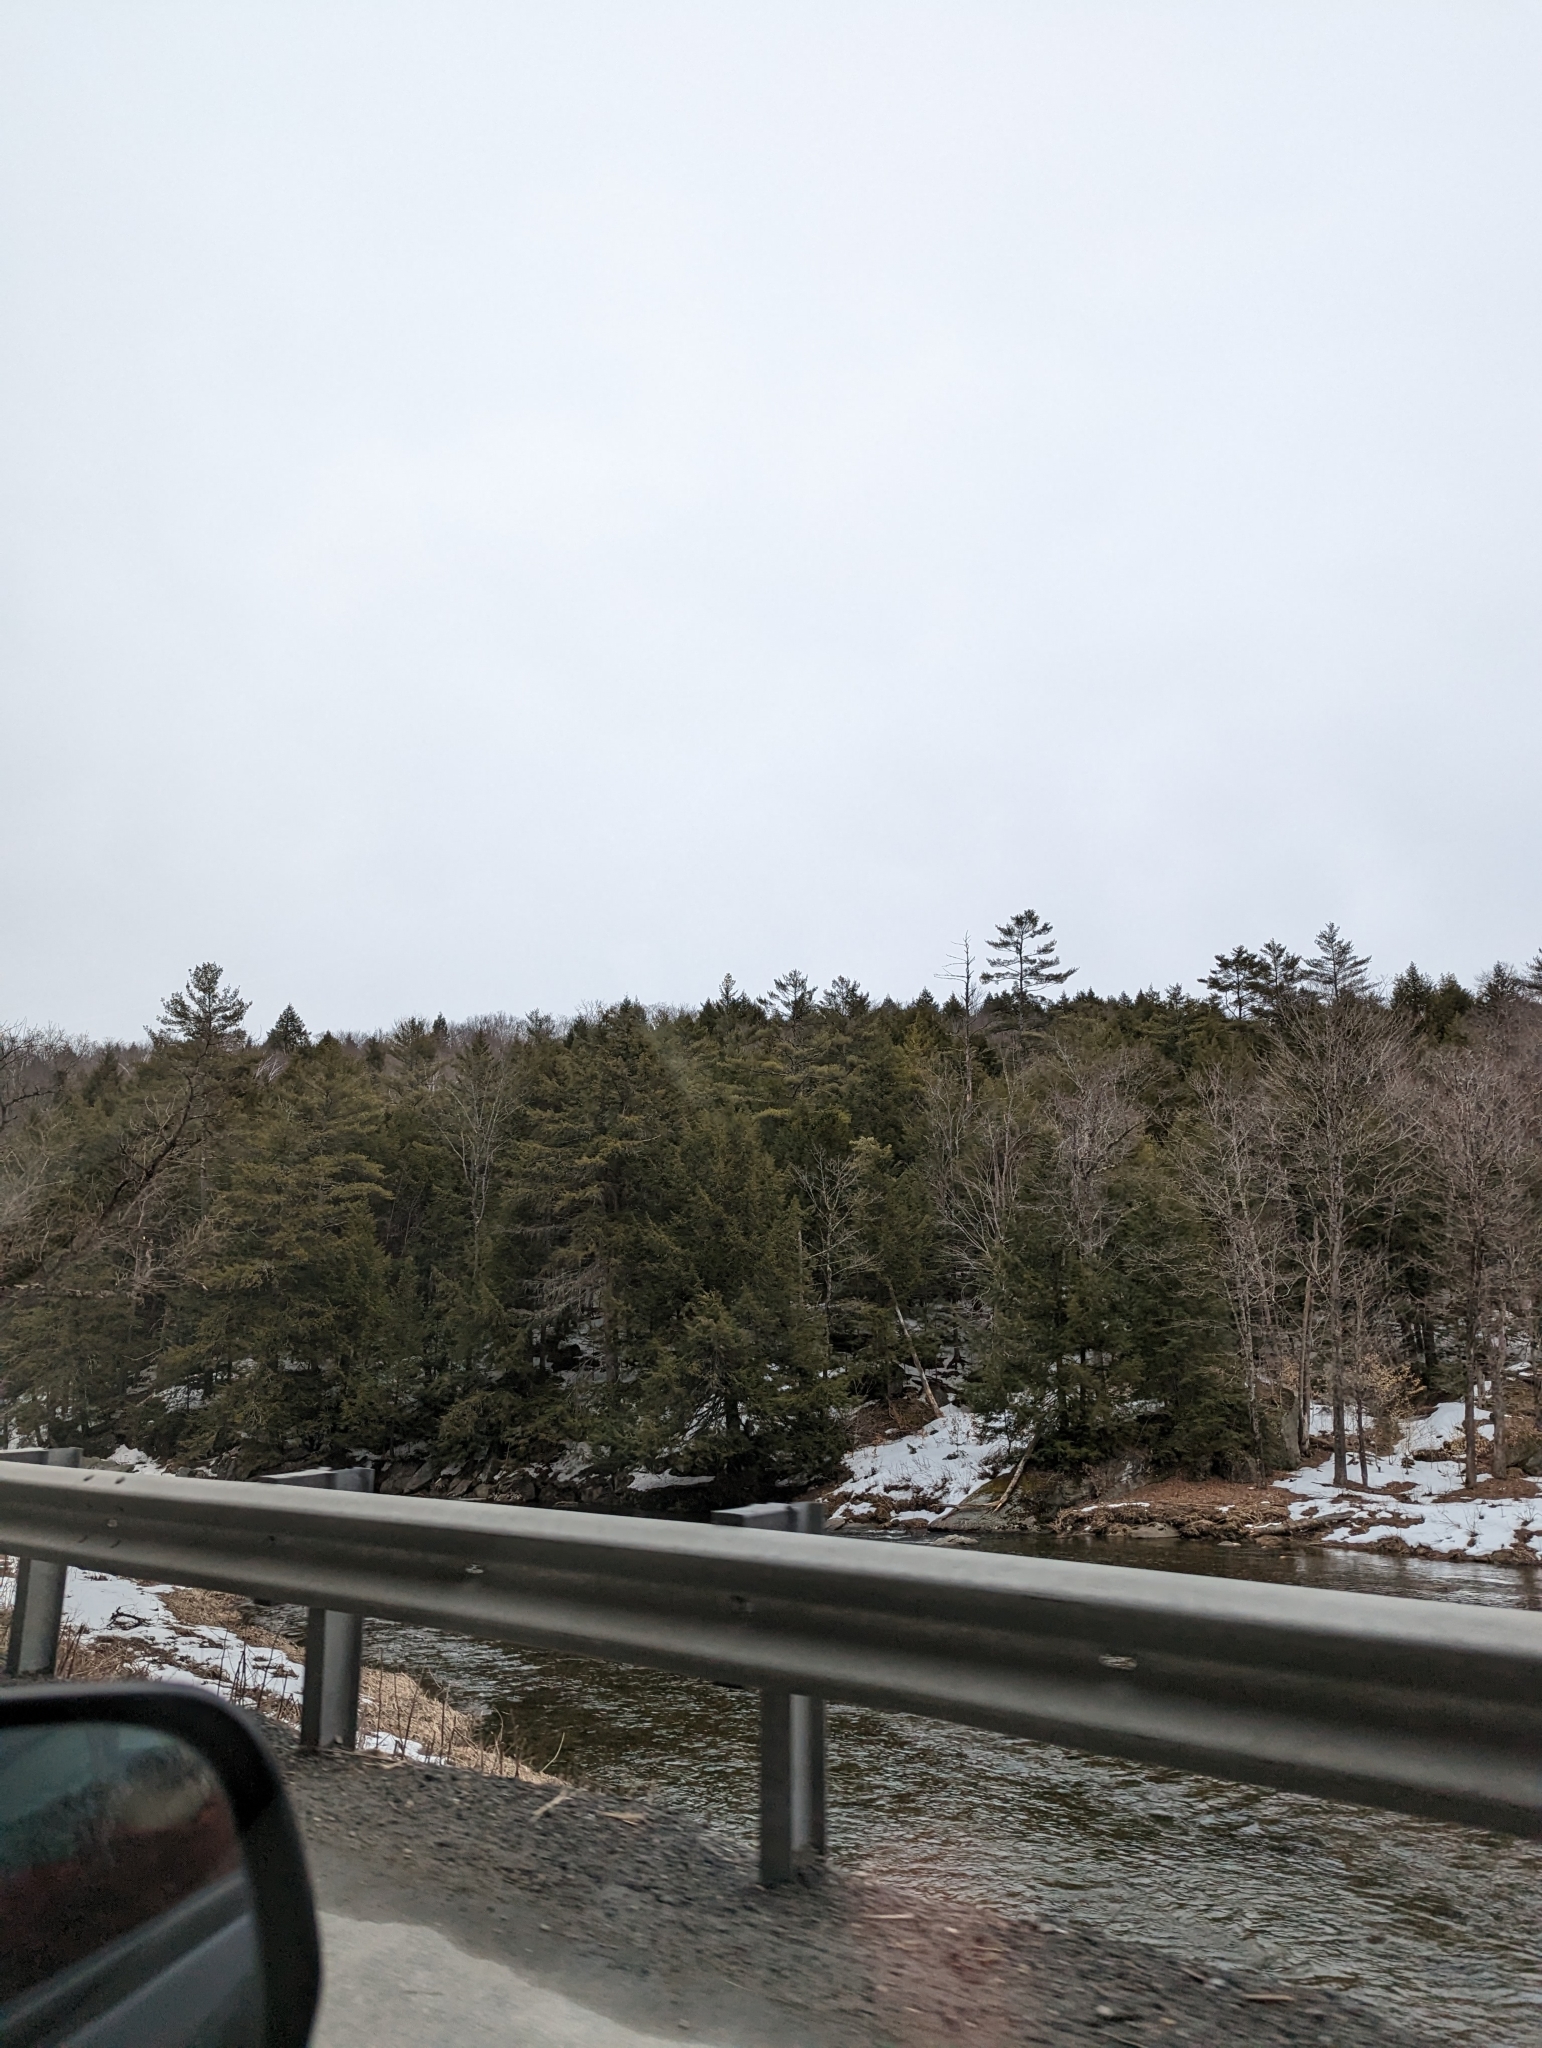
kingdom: Plantae
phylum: Tracheophyta
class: Pinopsida
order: Pinales
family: Pinaceae
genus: Pinus
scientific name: Pinus strobus
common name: Weymouth pine
